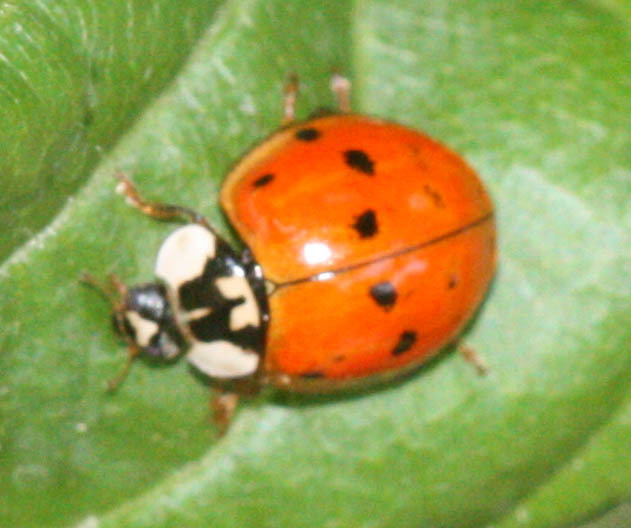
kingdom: Animalia
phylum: Arthropoda
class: Insecta
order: Coleoptera
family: Coccinellidae
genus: Harmonia
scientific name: Harmonia axyridis
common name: Harlequin ladybird
